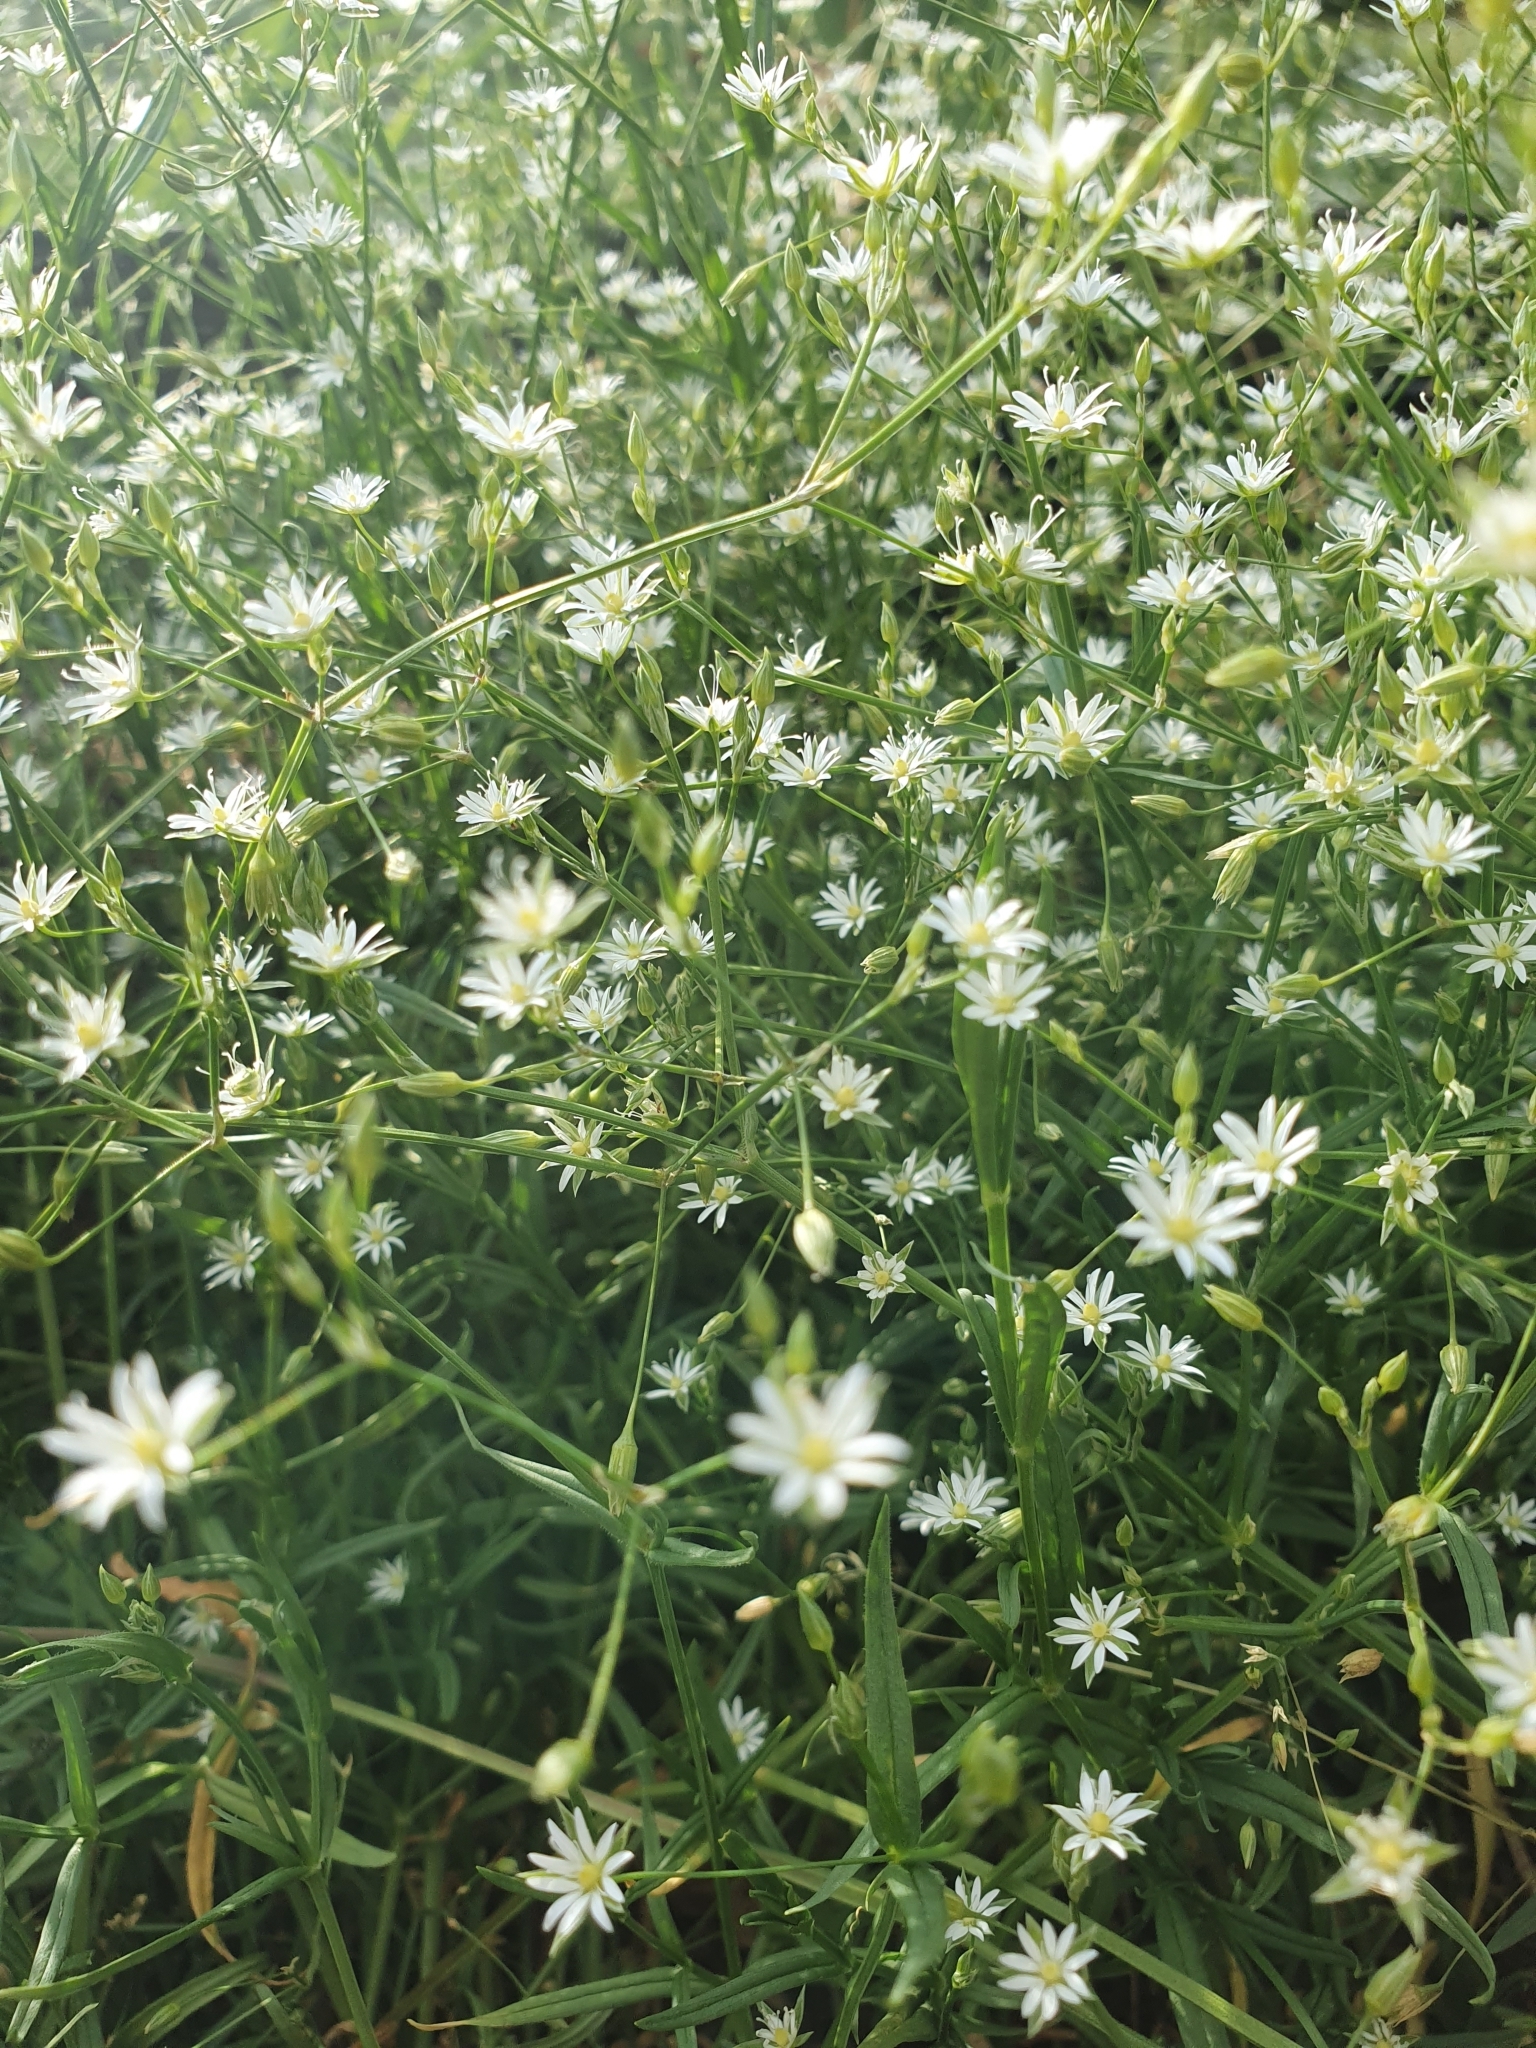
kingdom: Plantae
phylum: Tracheophyta
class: Magnoliopsida
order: Caryophyllales
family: Caryophyllaceae
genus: Stellaria
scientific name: Stellaria graminea
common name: Grass-like starwort
